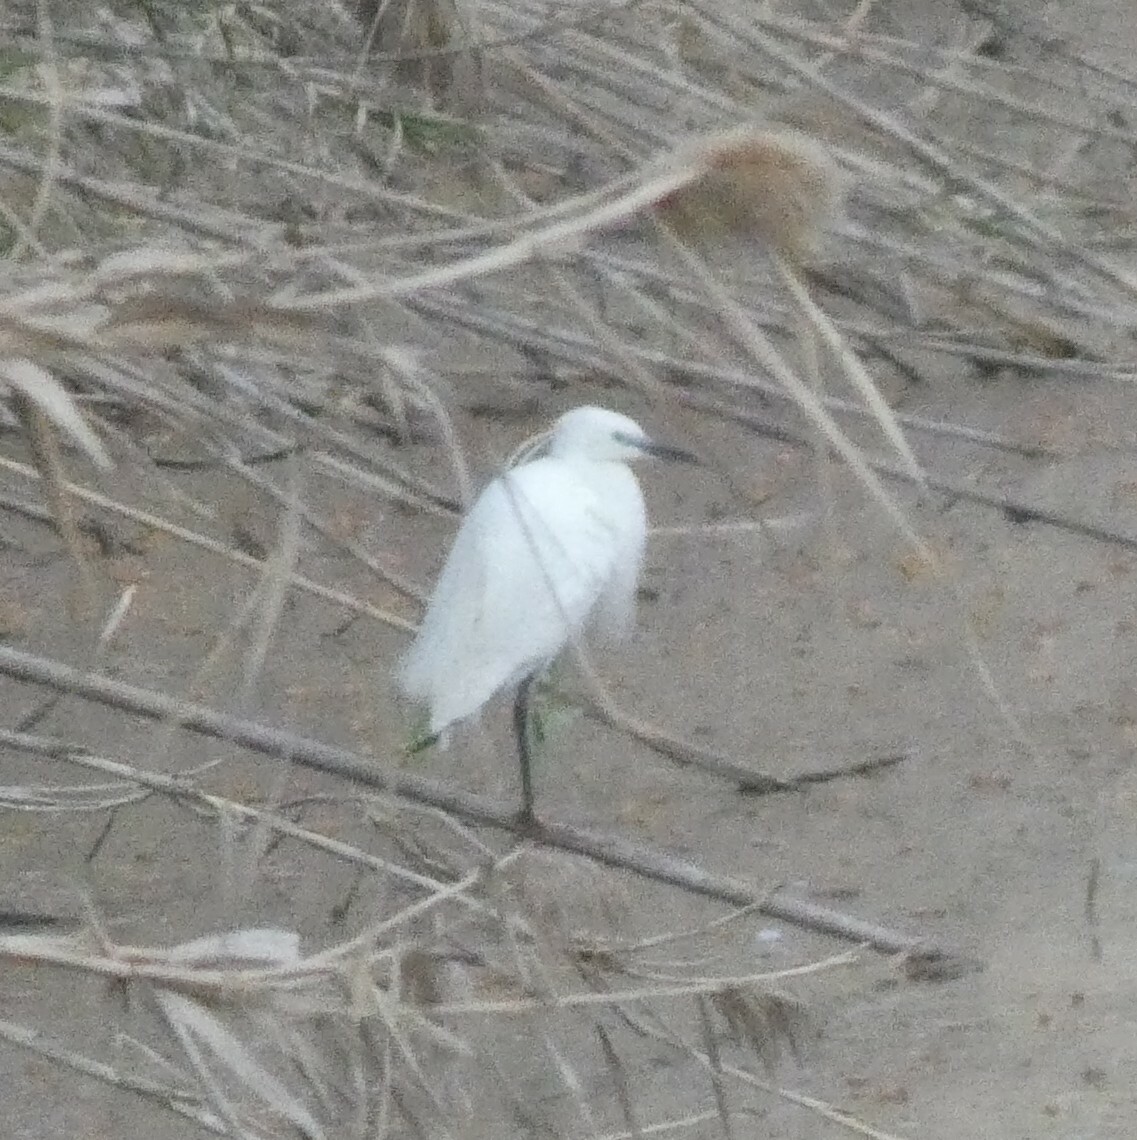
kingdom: Animalia
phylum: Chordata
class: Aves
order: Pelecaniformes
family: Ardeidae
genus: Egretta
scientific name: Egretta garzetta
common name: Little egret
